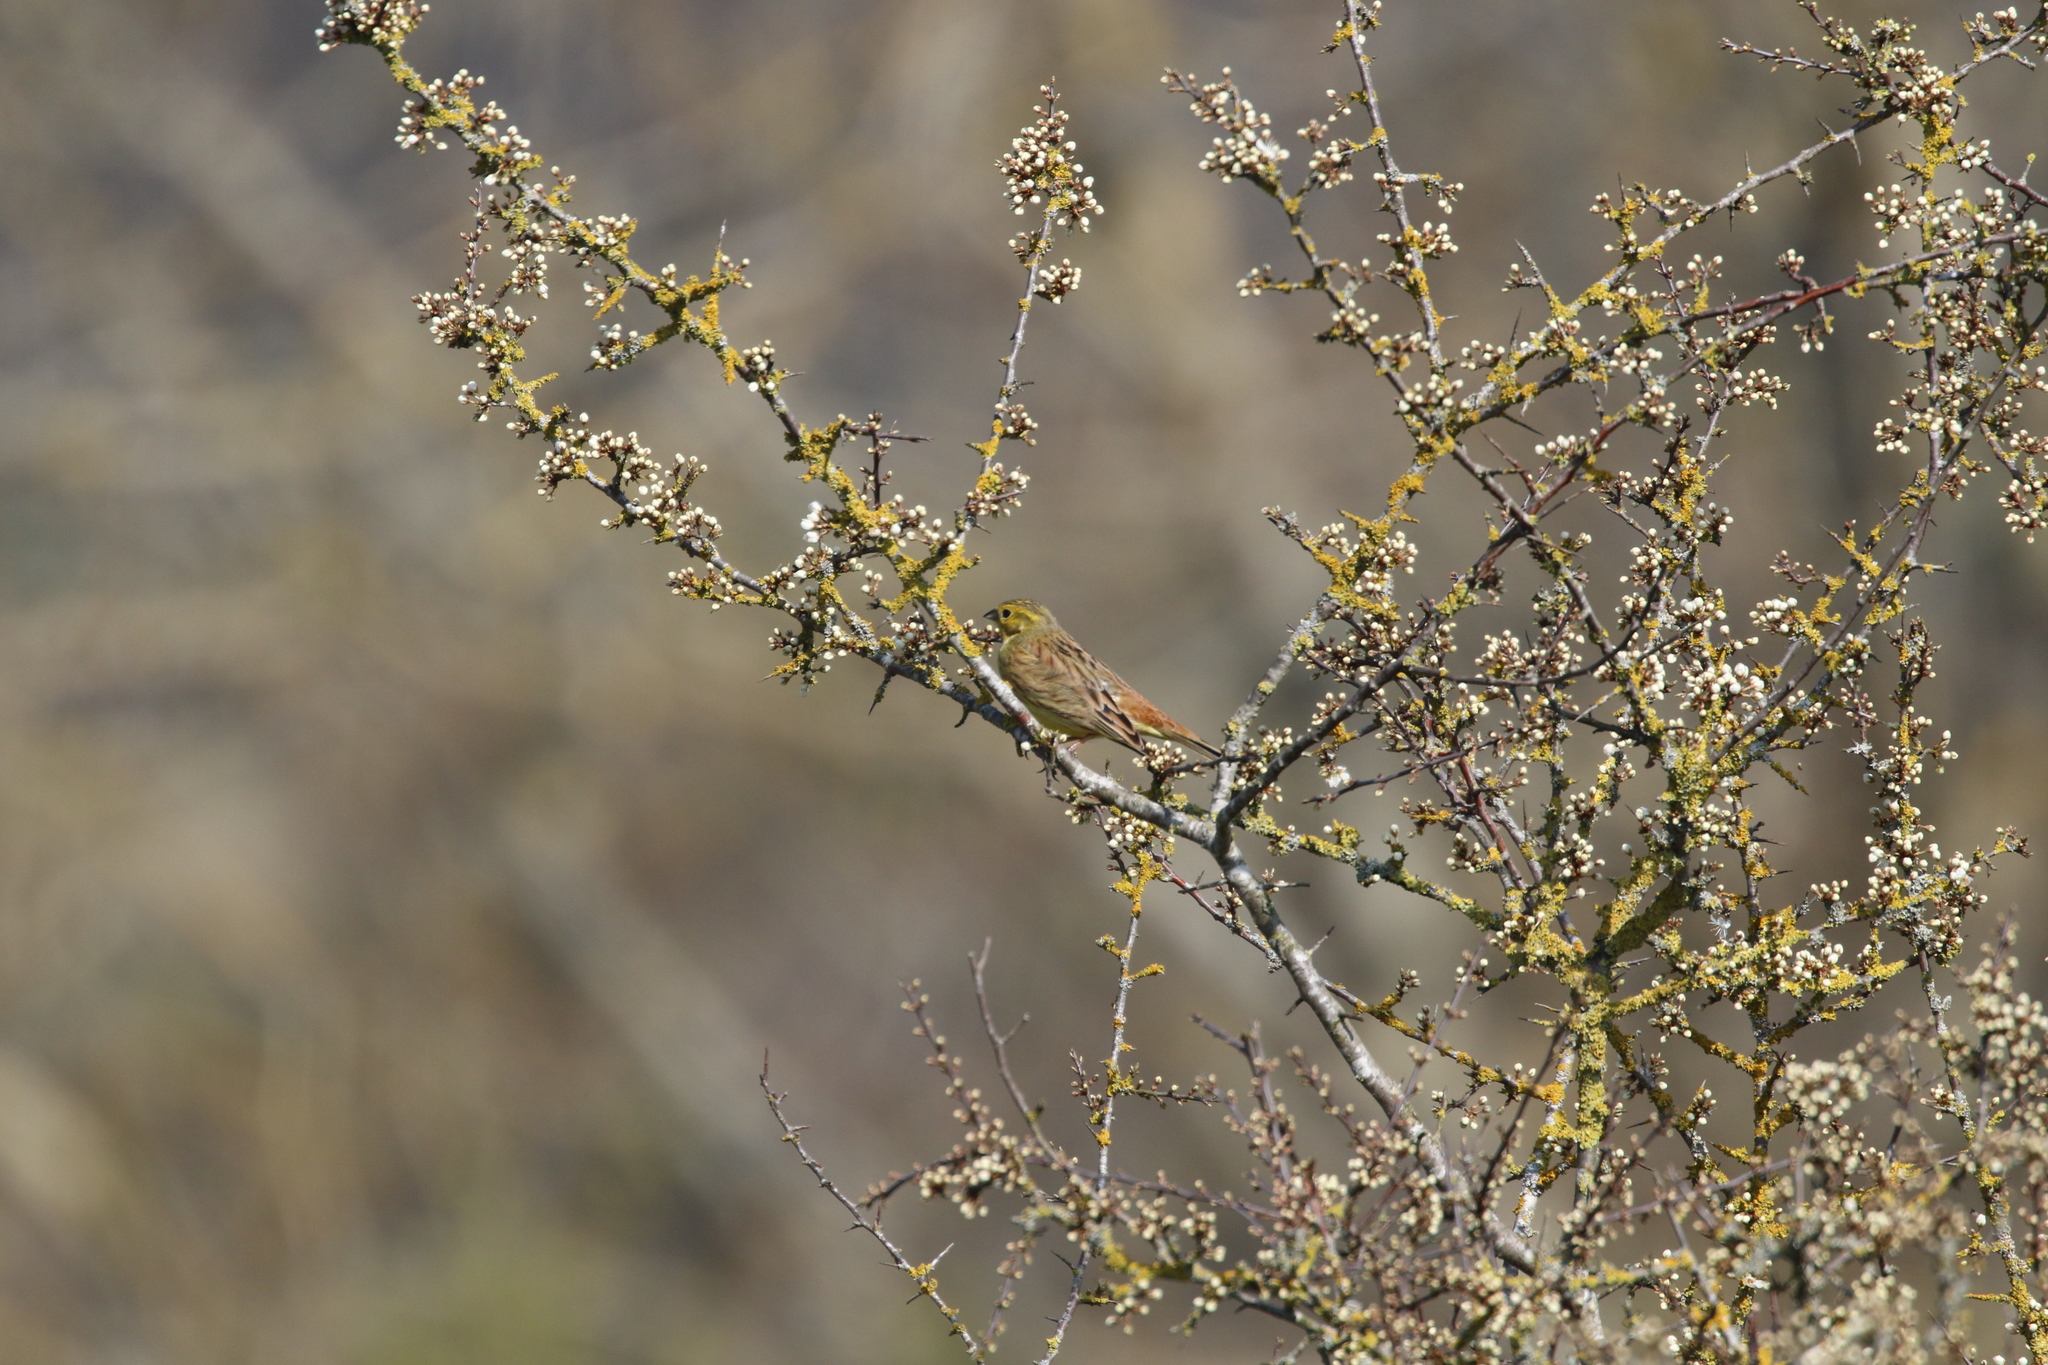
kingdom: Animalia
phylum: Chordata
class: Aves
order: Passeriformes
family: Emberizidae
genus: Emberiza
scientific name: Emberiza citrinella
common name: Yellowhammer
